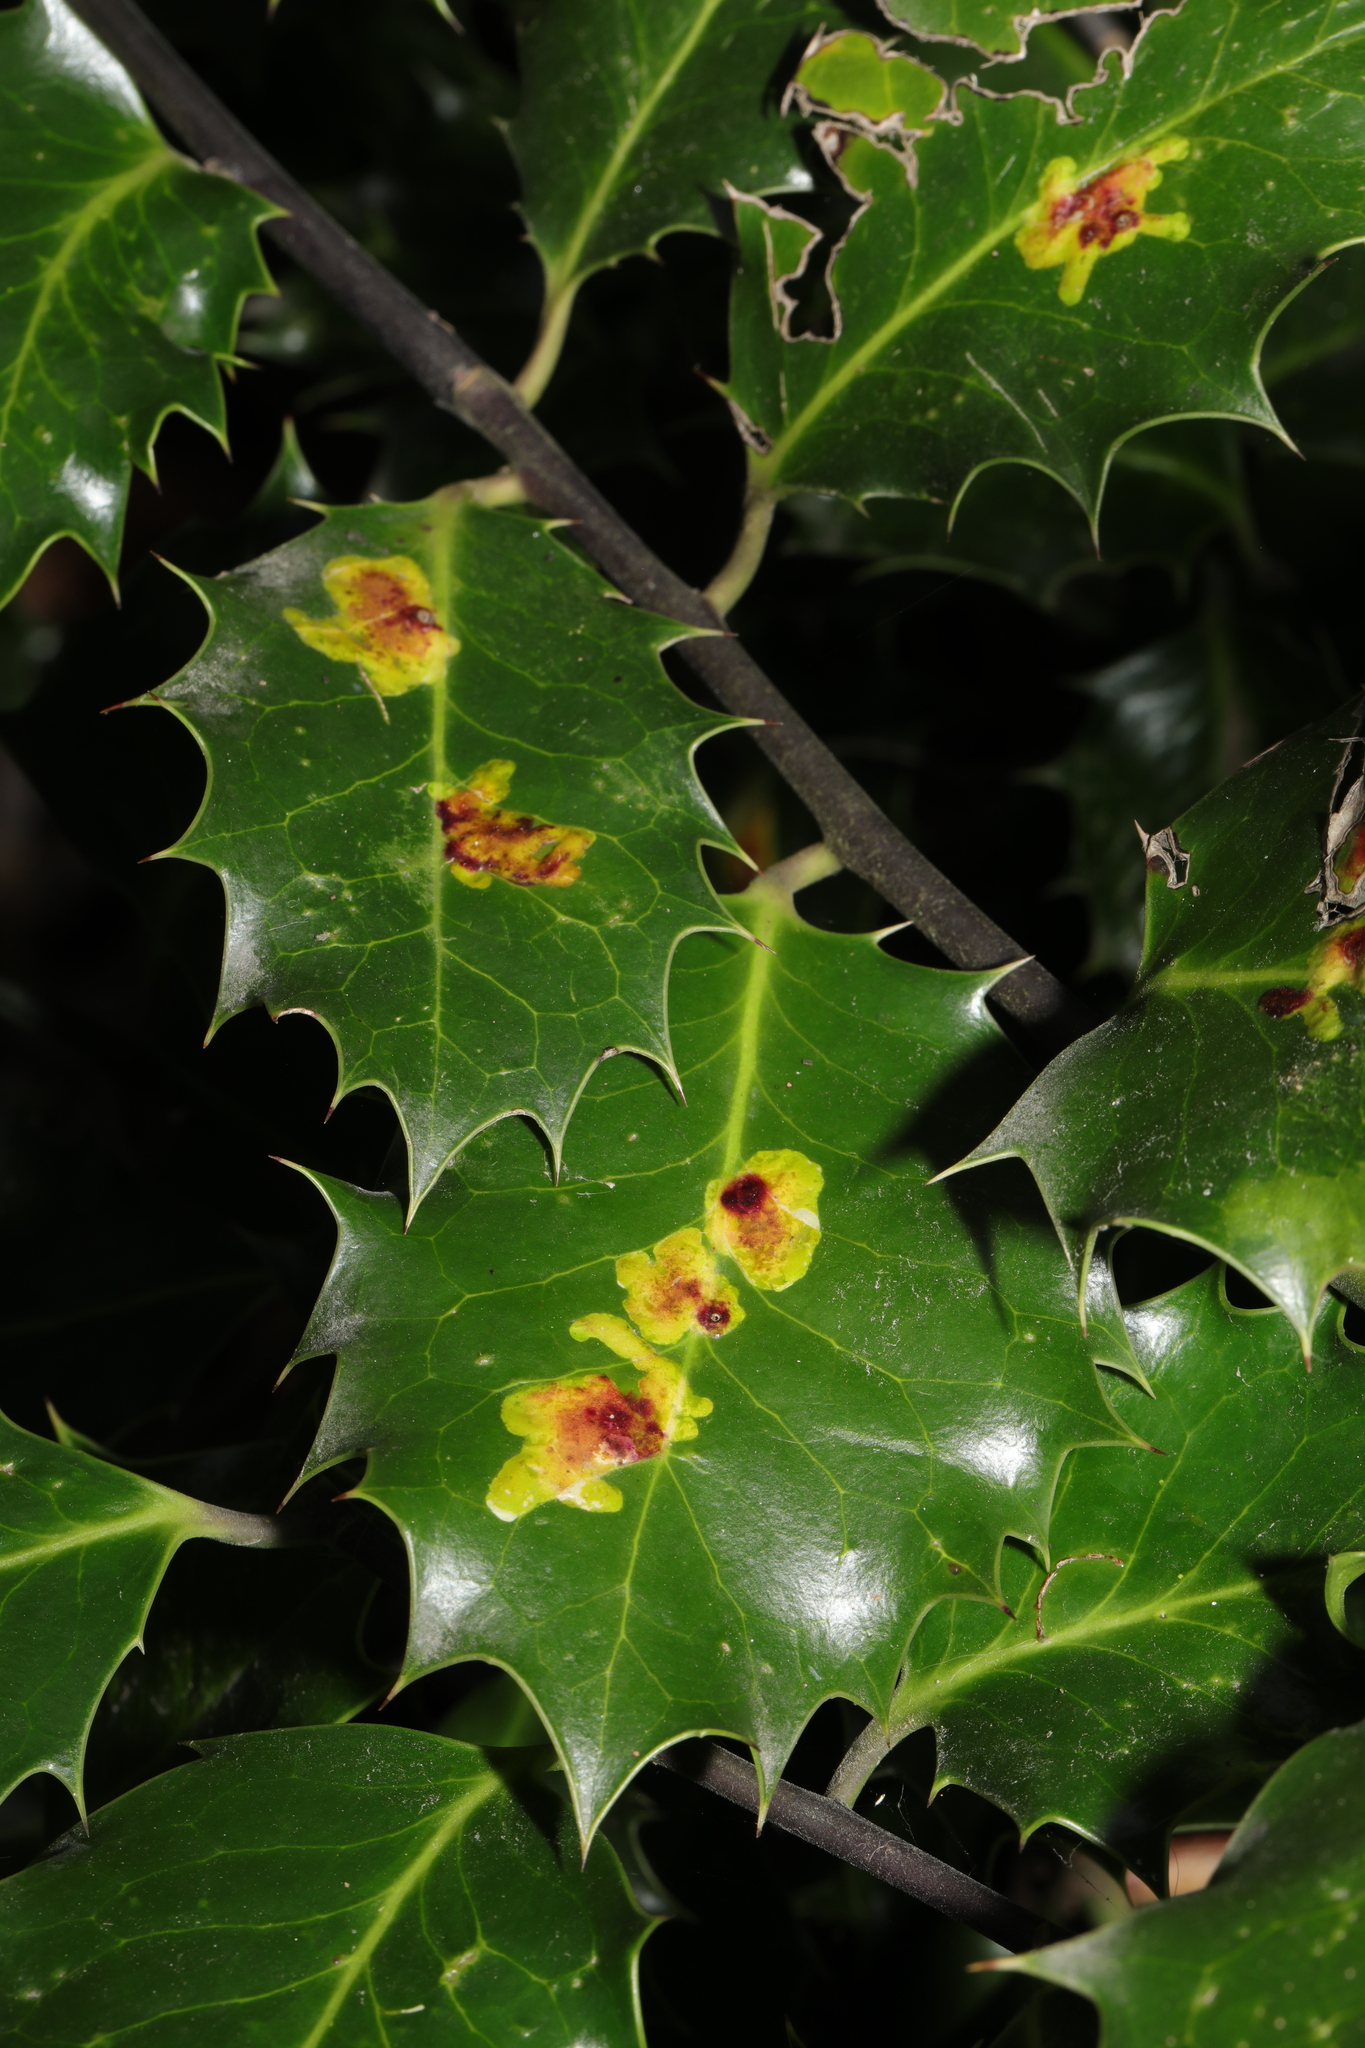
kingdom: Animalia
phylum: Arthropoda
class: Insecta
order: Diptera
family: Agromyzidae
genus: Phytomyza
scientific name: Phytomyza ilicis
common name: Holly leafminer
